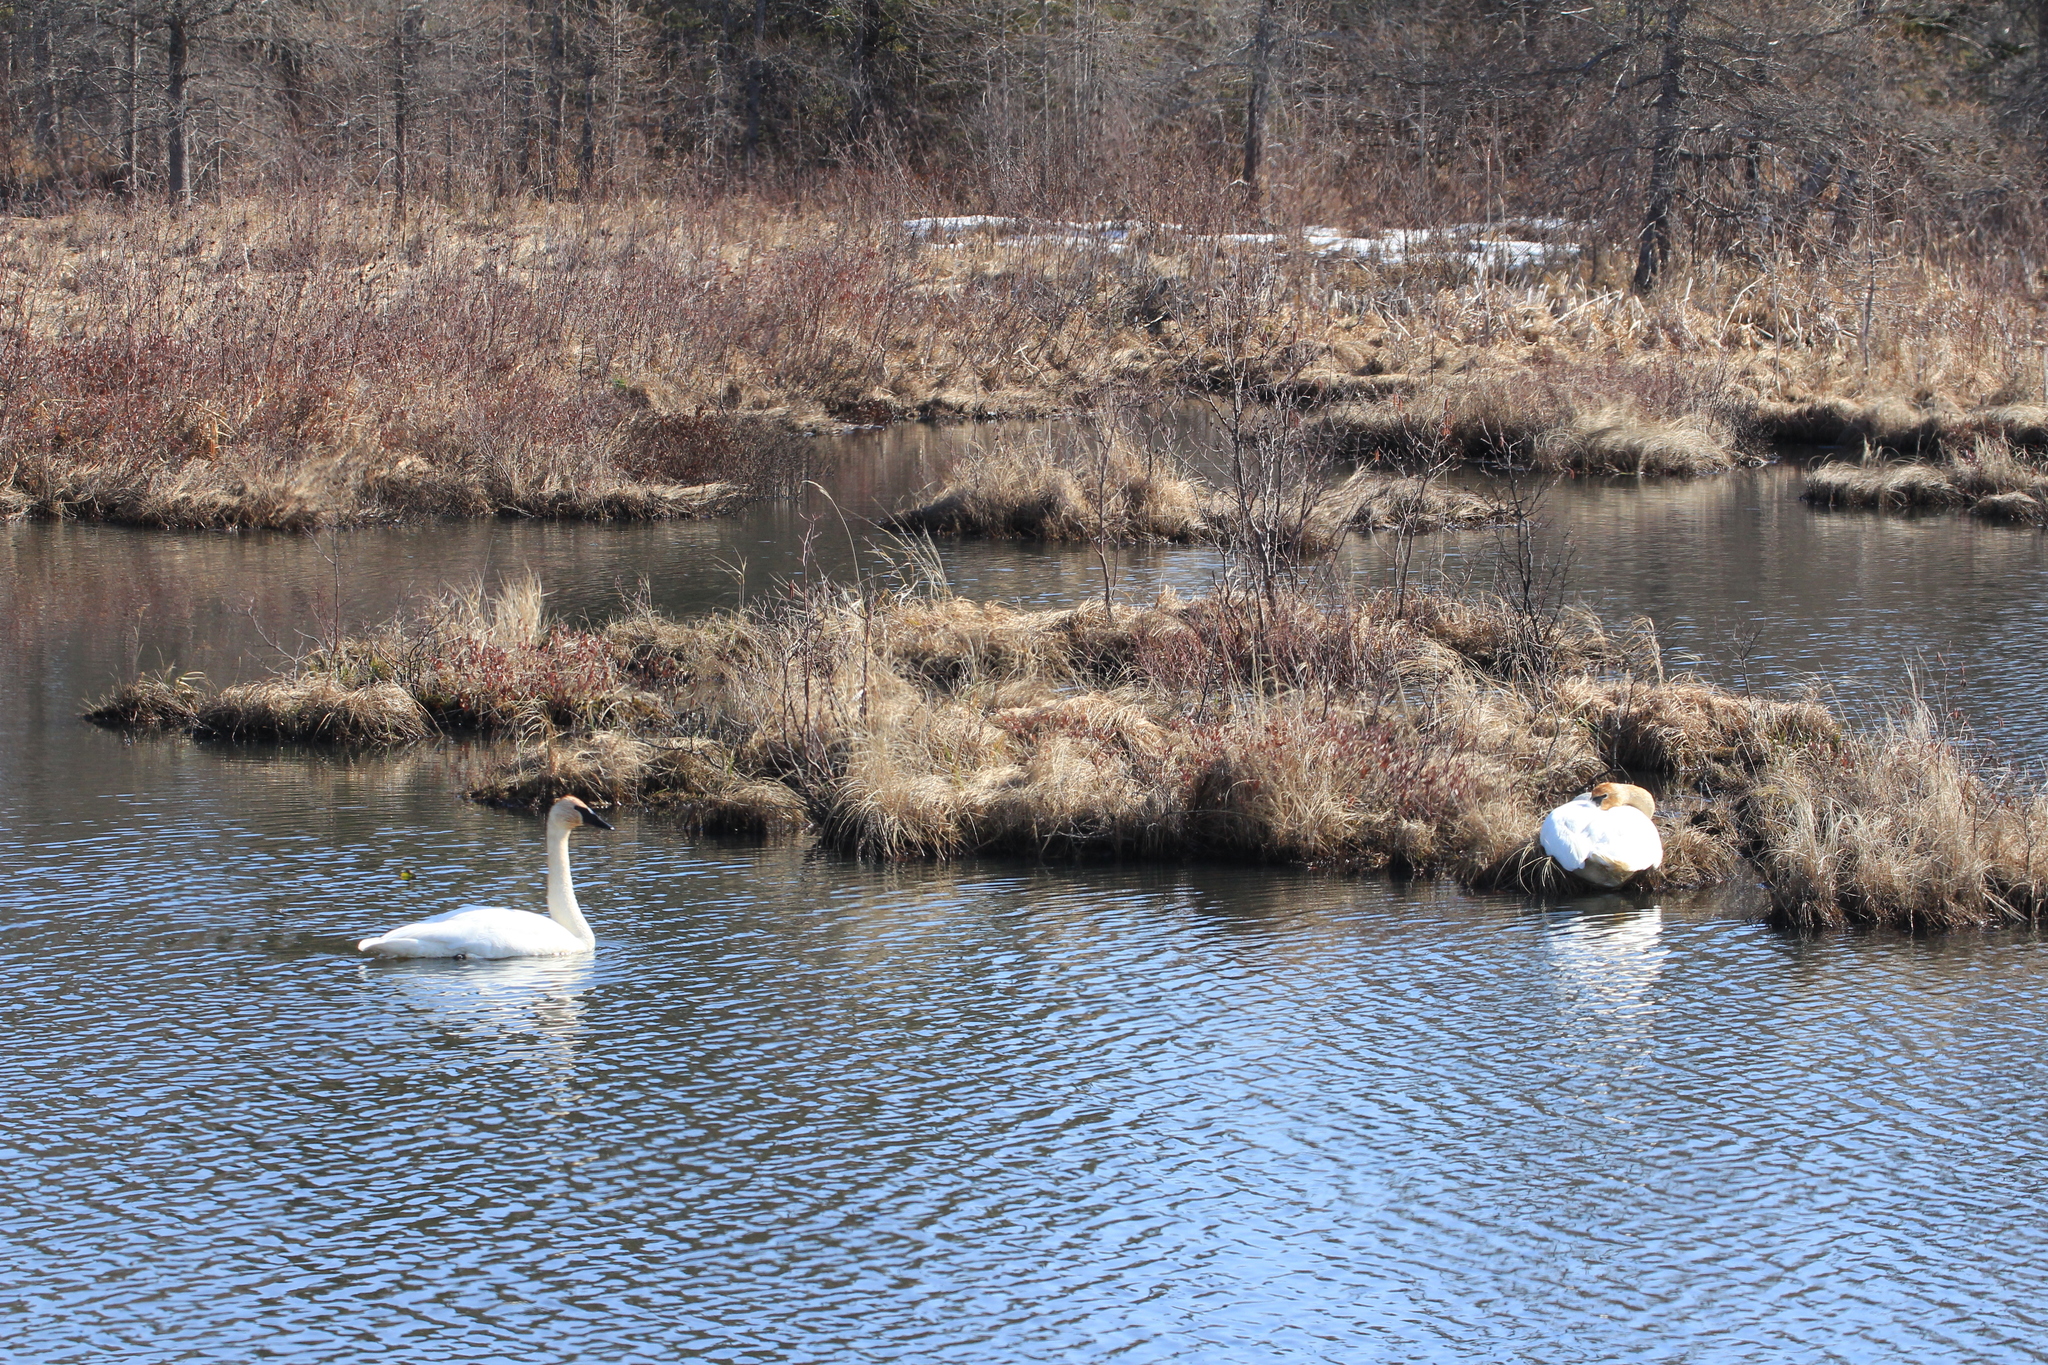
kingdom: Animalia
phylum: Chordata
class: Aves
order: Anseriformes
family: Anatidae
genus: Cygnus
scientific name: Cygnus buccinator
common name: Trumpeter swan
